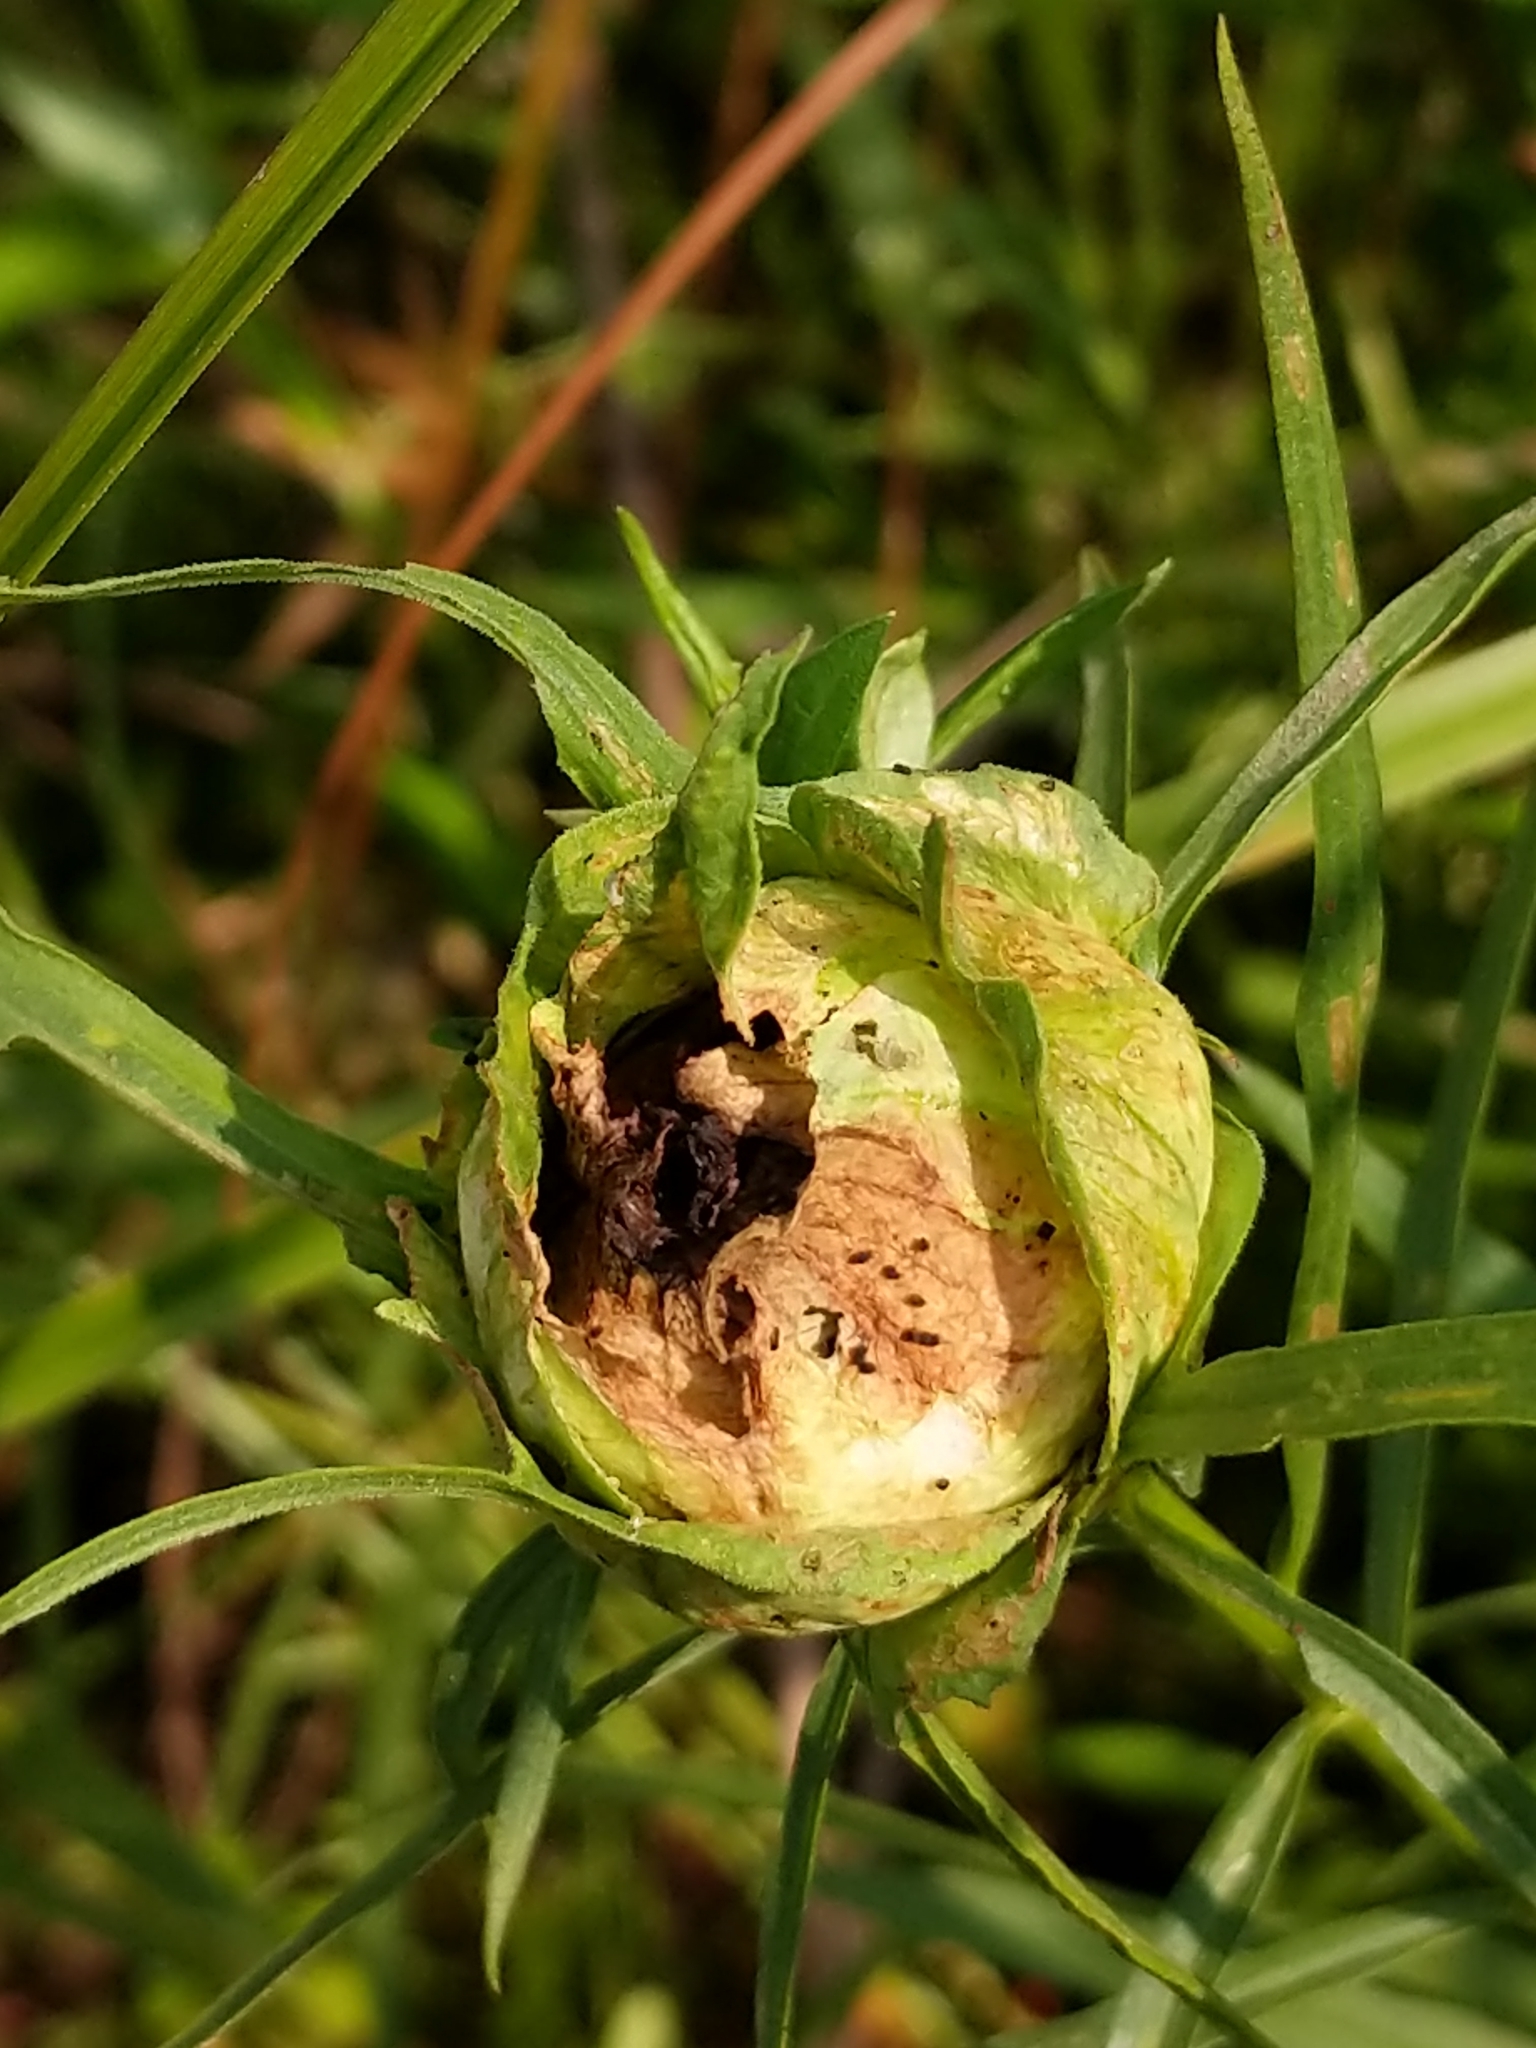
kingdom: Animalia
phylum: Arthropoda
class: Insecta
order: Diptera
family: Cecidomyiidae
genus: Rhopalomyia
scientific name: Rhopalomyia lobata
